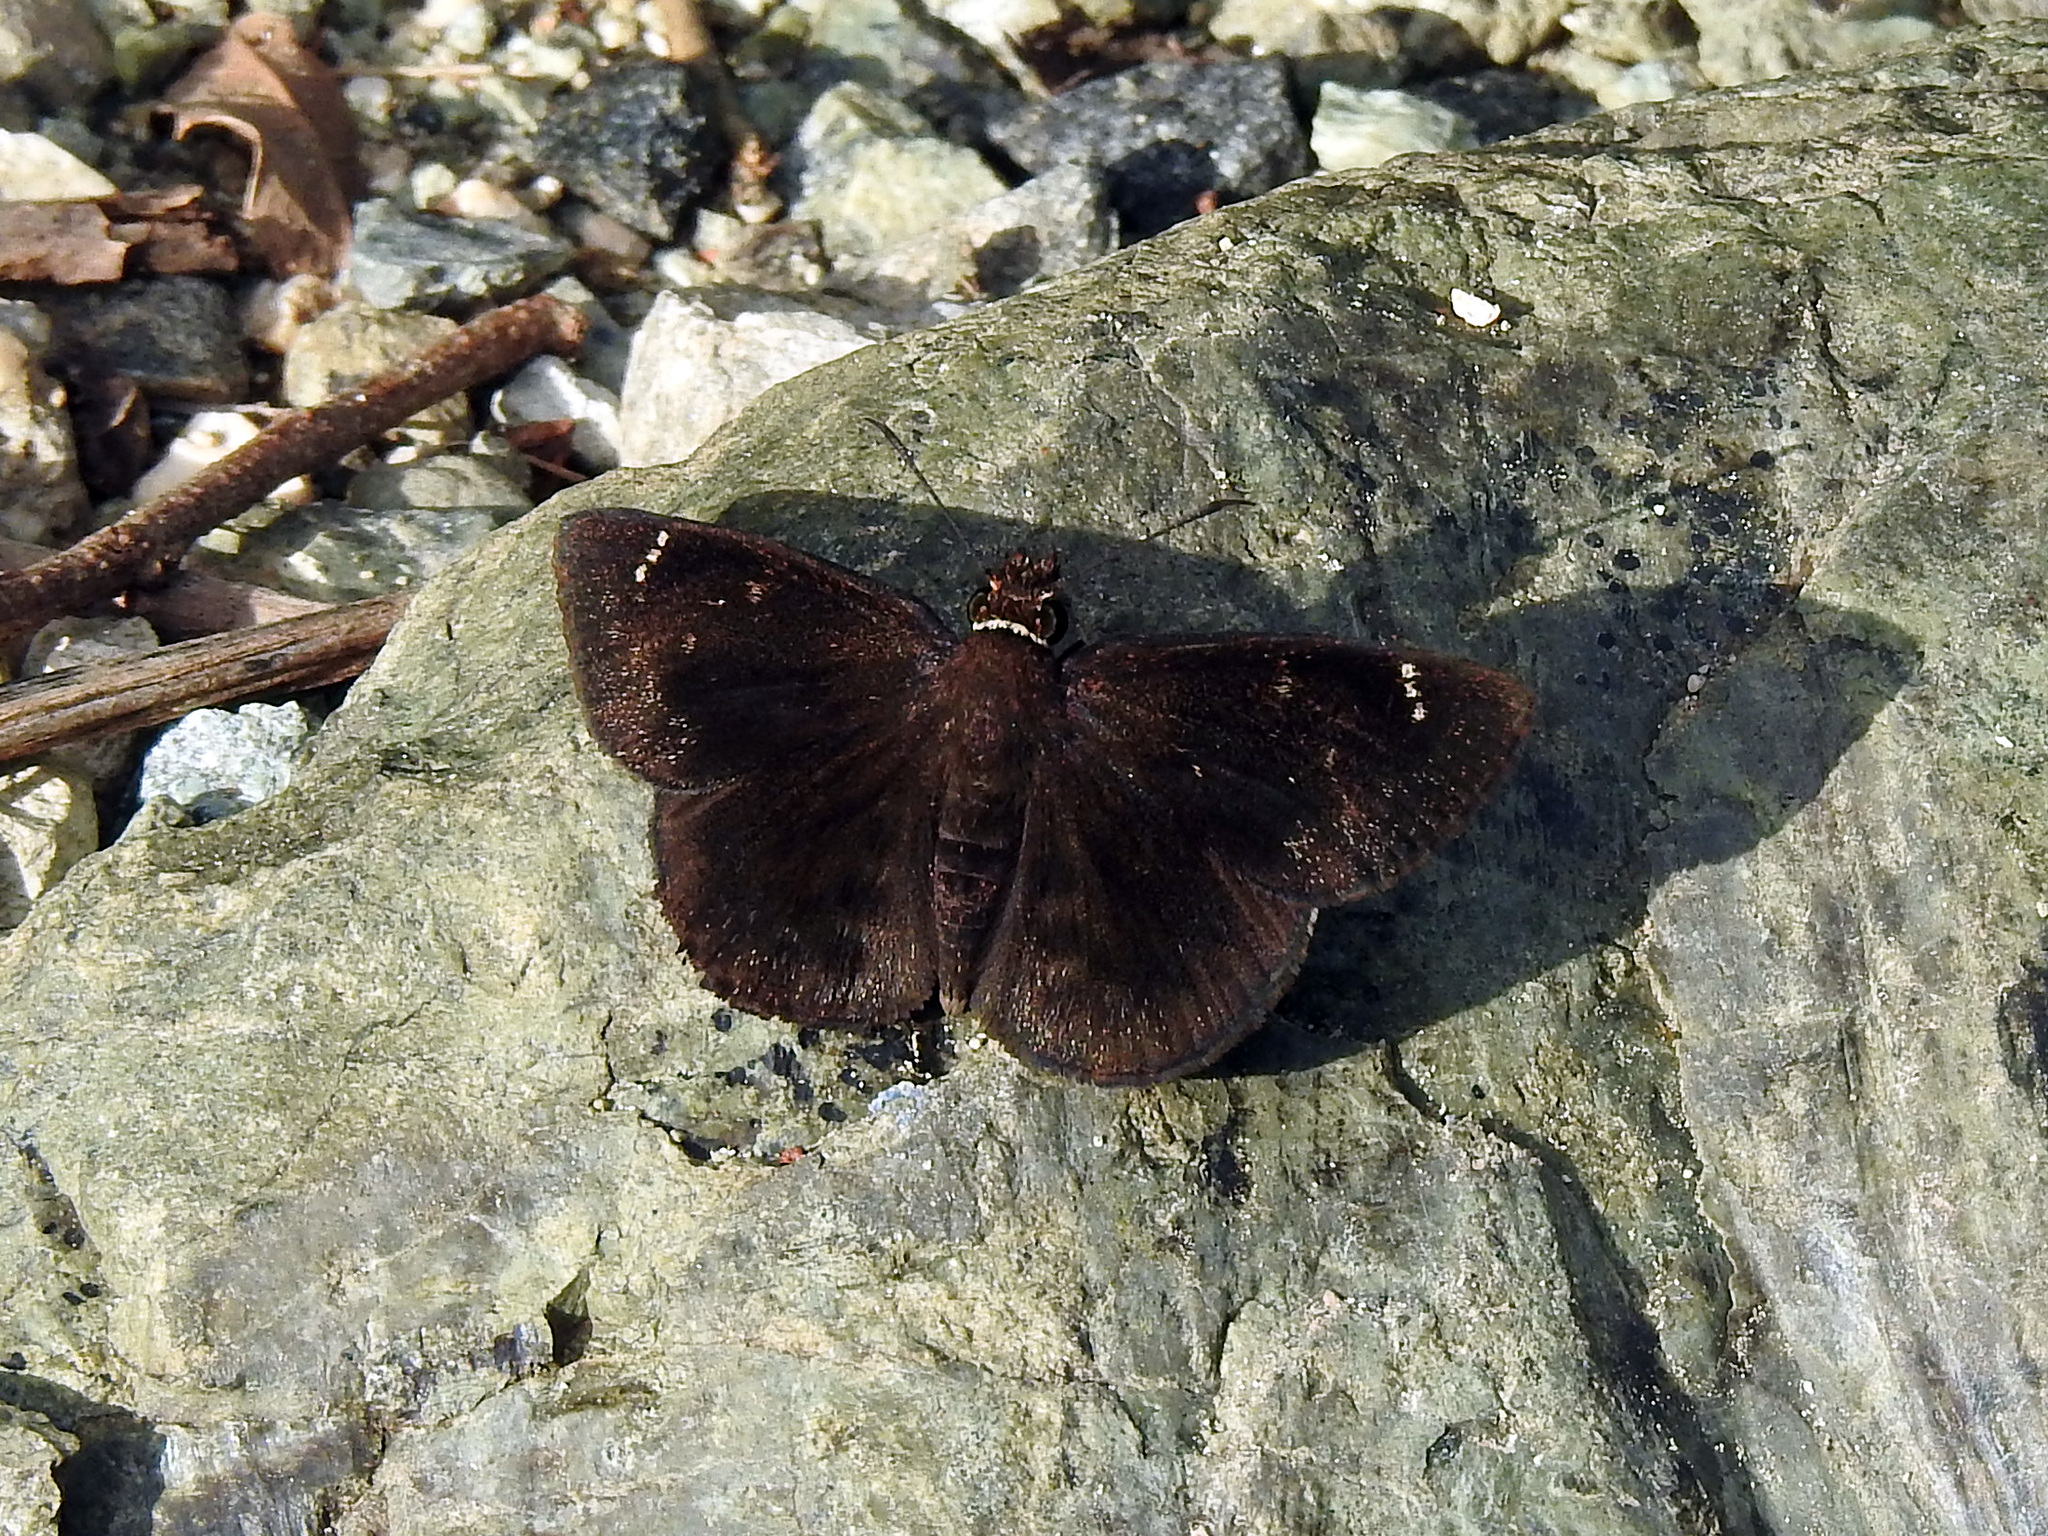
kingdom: Animalia
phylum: Arthropoda
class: Insecta
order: Lepidoptera
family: Hesperiidae
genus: Burca
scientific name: Burca braco
